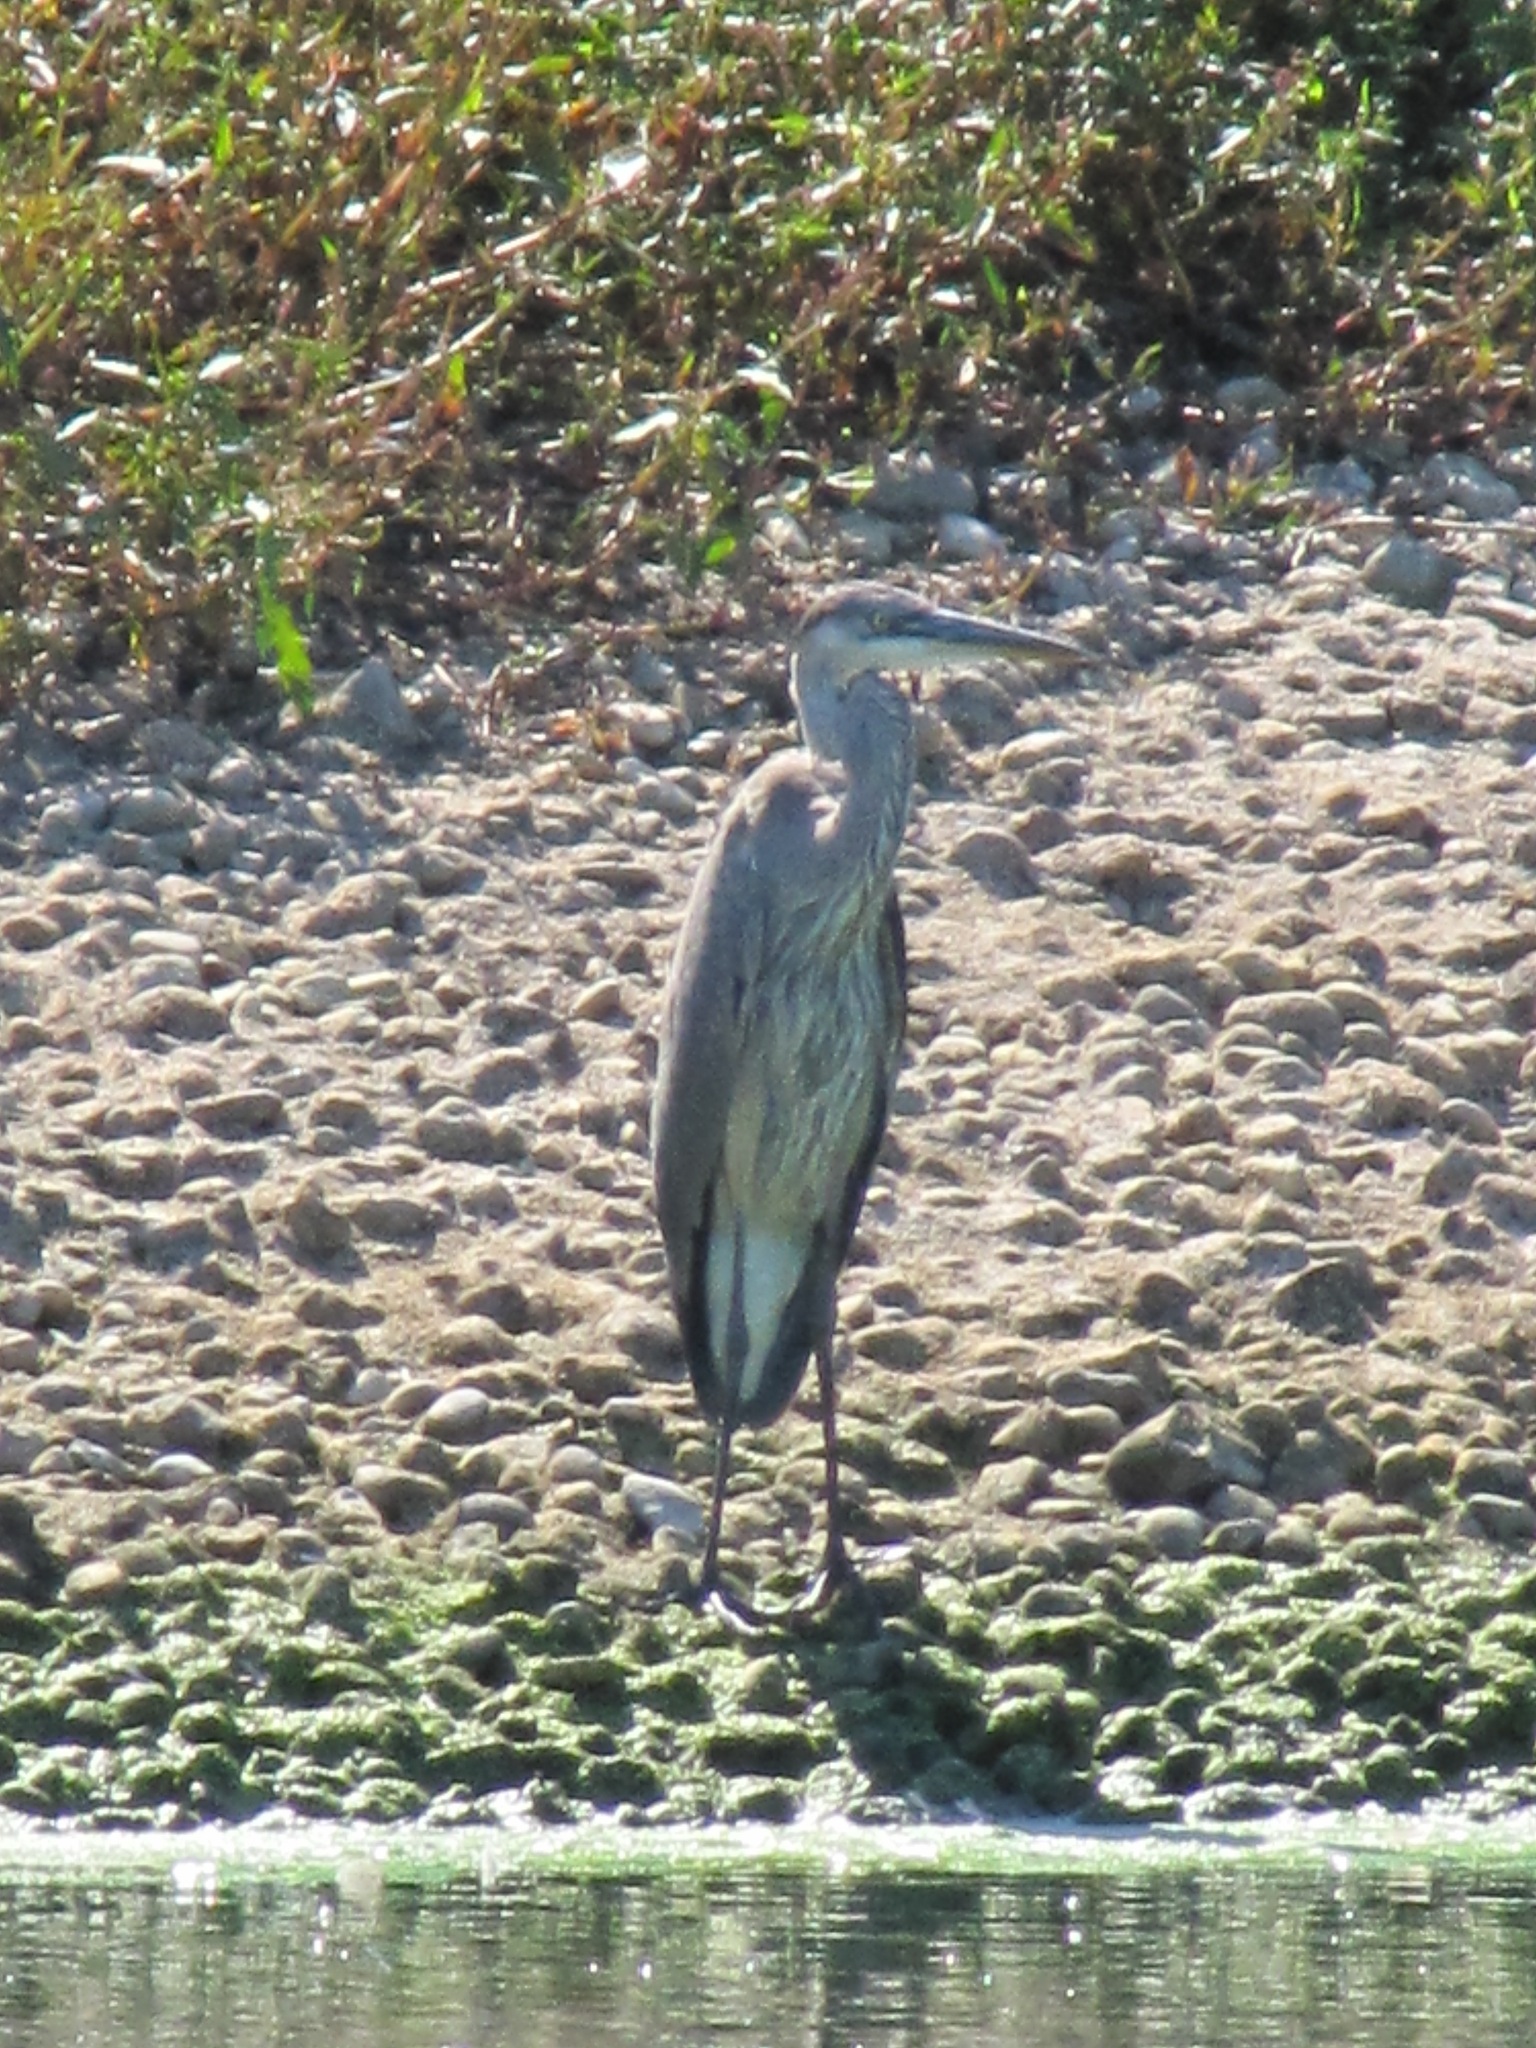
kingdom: Animalia
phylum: Chordata
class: Aves
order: Pelecaniformes
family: Ardeidae
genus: Ardea
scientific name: Ardea herodias
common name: Great blue heron
